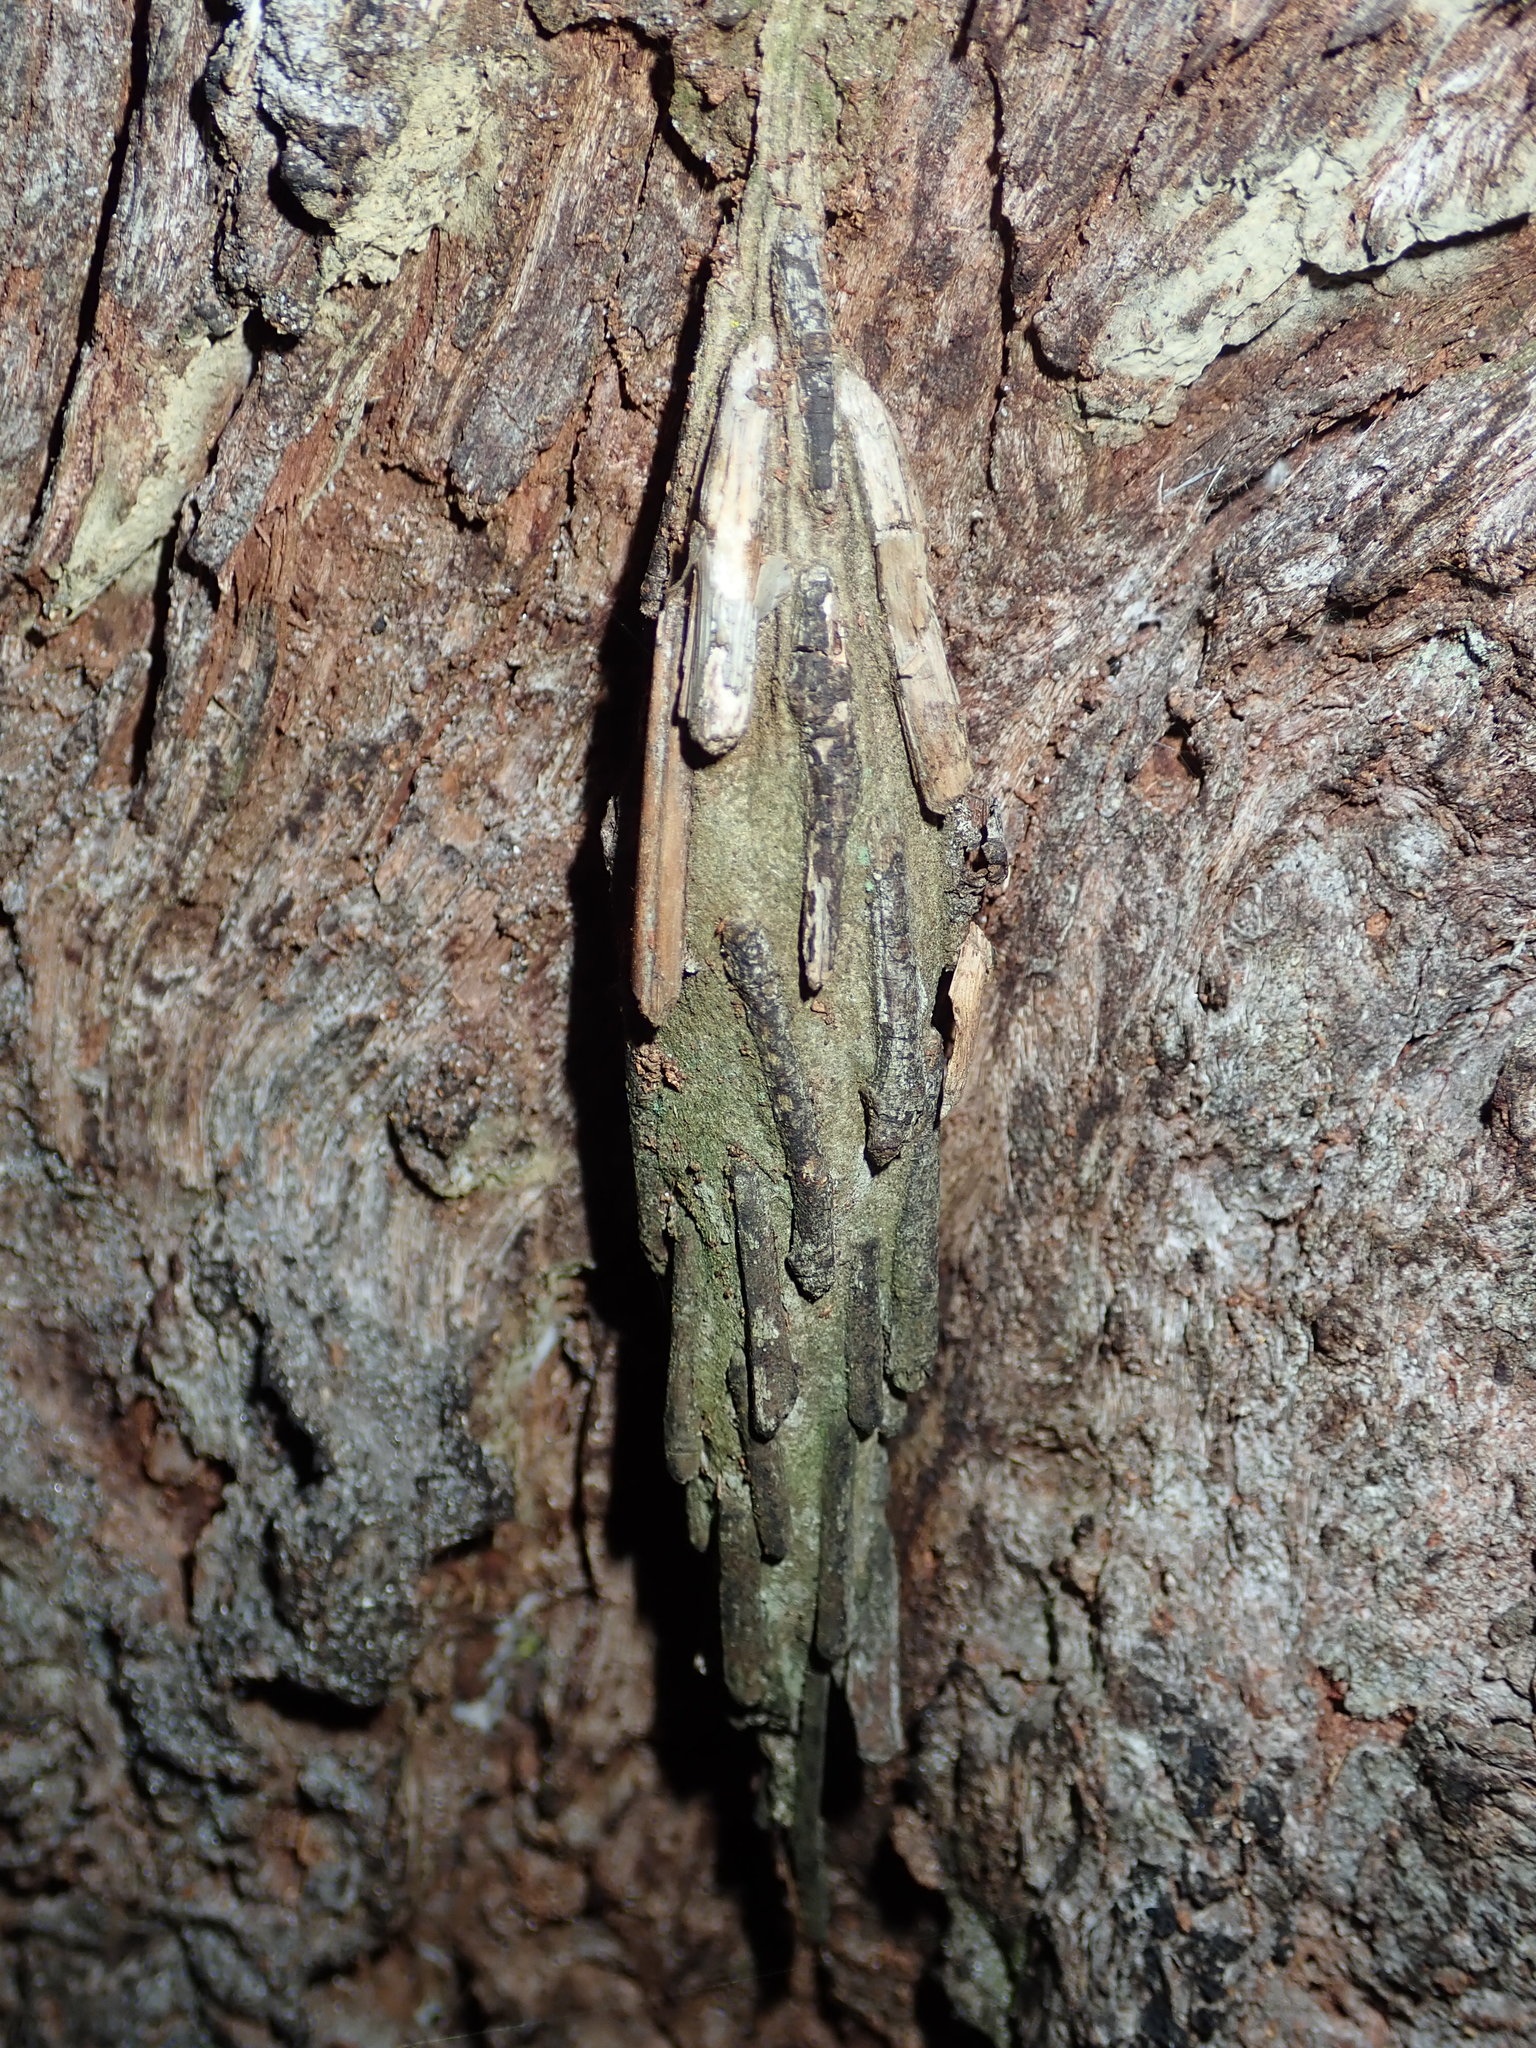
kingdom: Animalia
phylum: Arthropoda
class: Insecta
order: Lepidoptera
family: Psychidae
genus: Metura
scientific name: Metura elongatus
